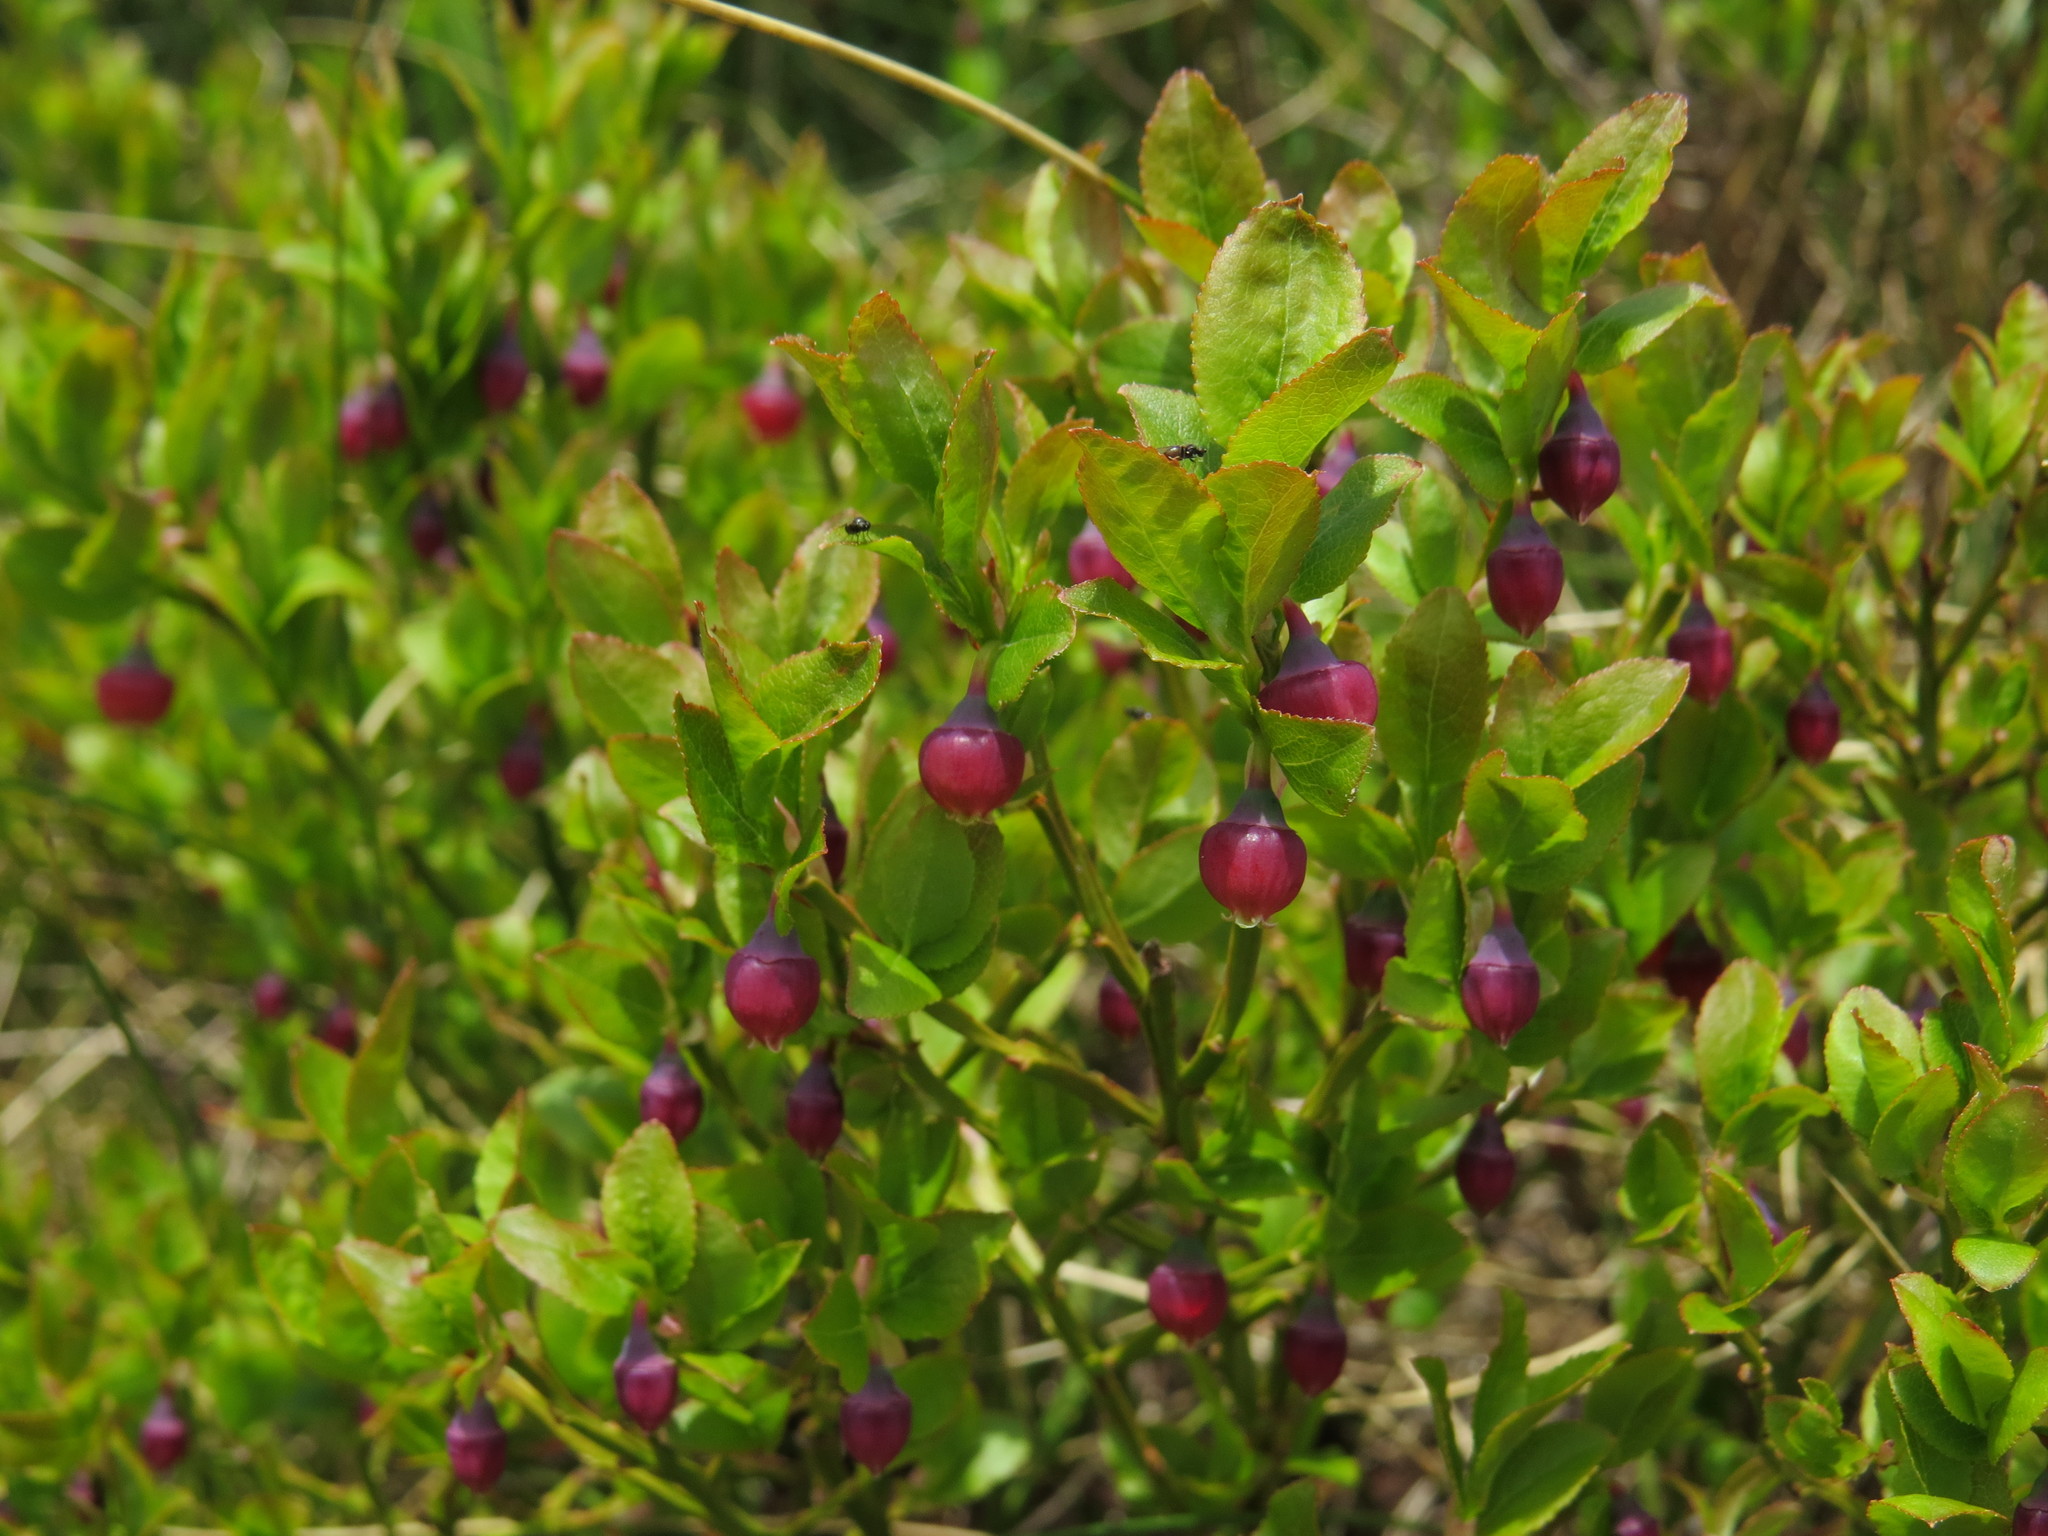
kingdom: Plantae
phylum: Tracheophyta
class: Magnoliopsida
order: Ericales
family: Ericaceae
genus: Vaccinium
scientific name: Vaccinium myrtillus
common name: Bilberry
